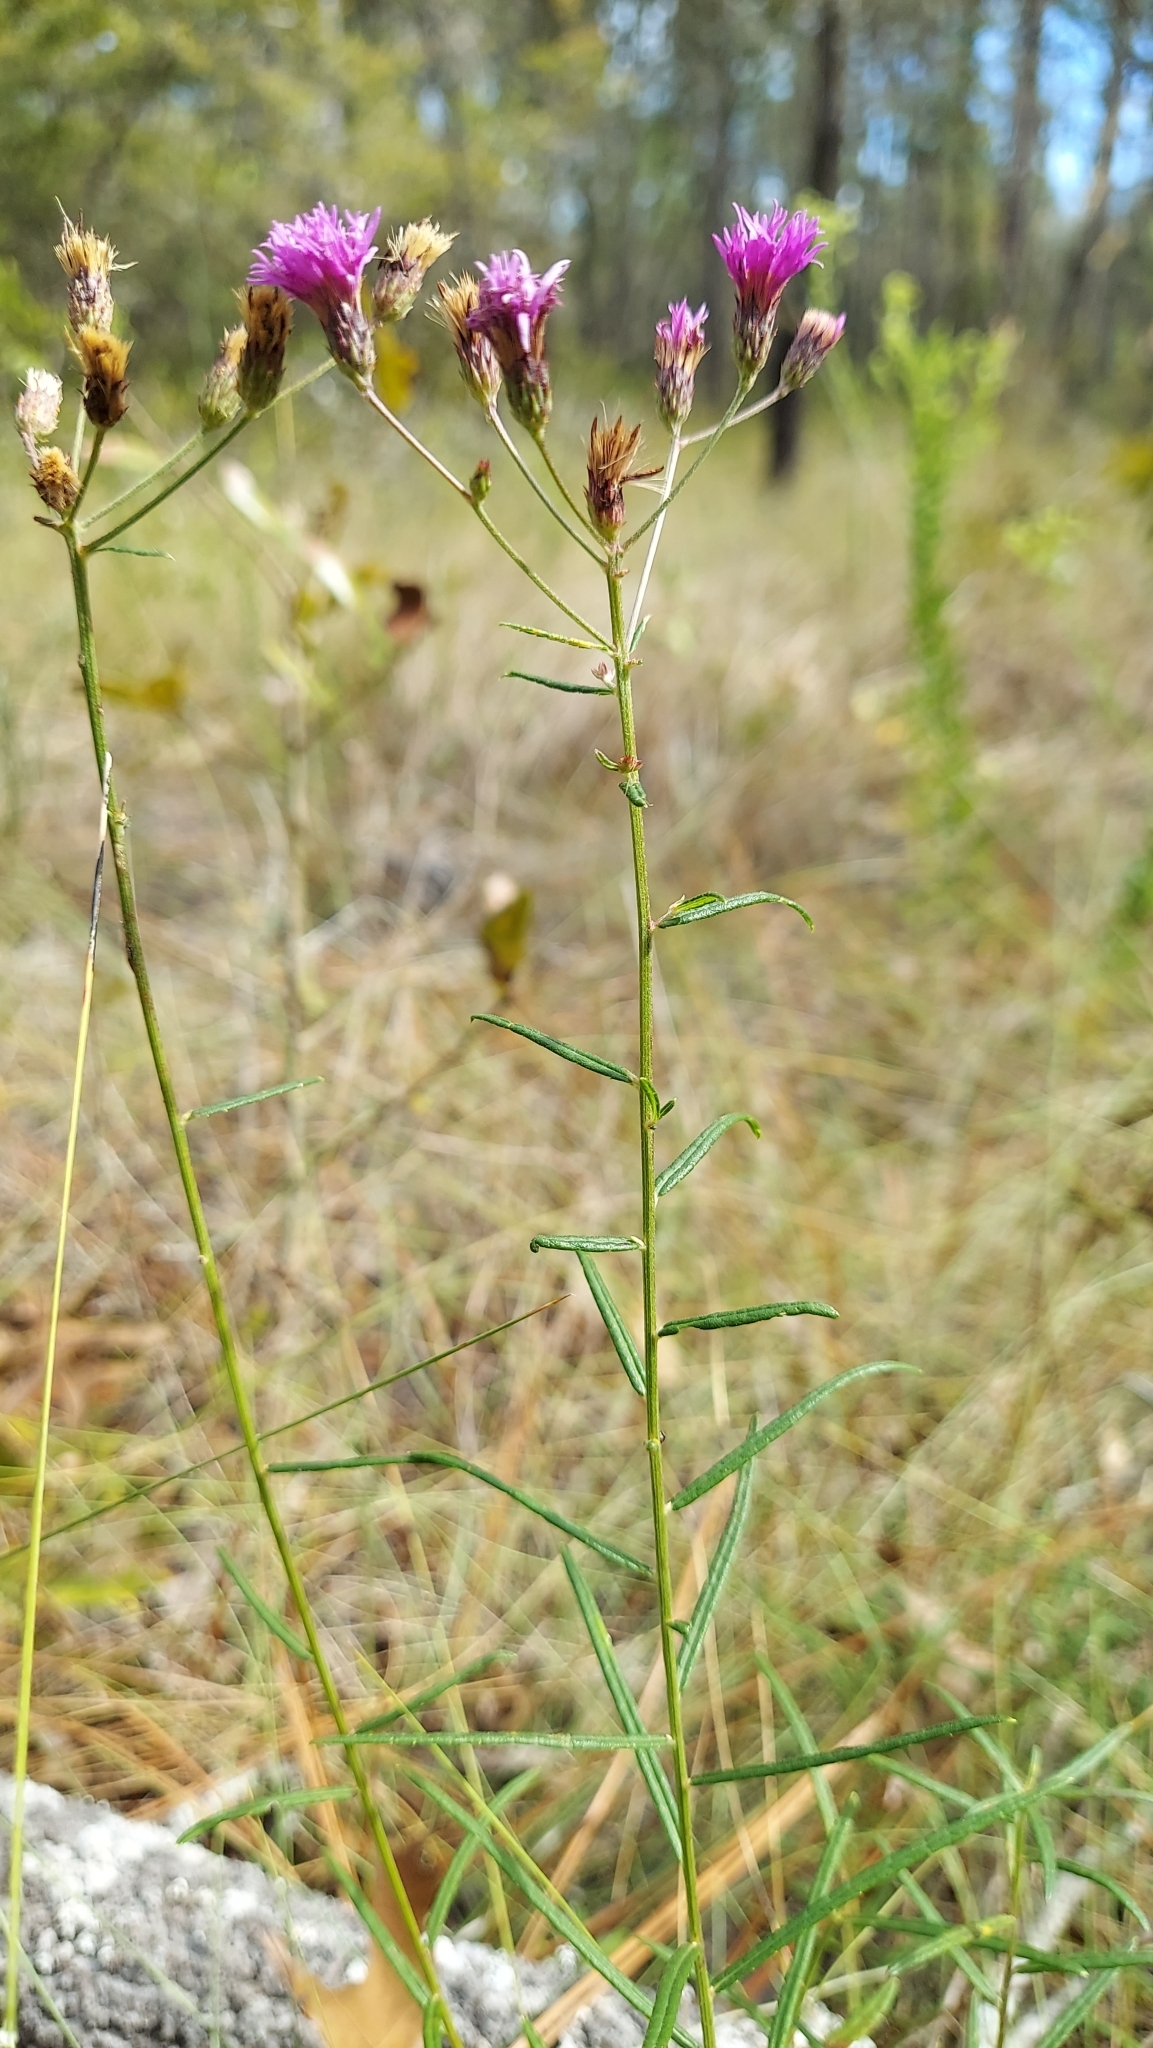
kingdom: Plantae
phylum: Tracheophyta
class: Magnoliopsida
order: Asterales
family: Asteraceae
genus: Vernonia
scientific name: Vernonia angustifolia
